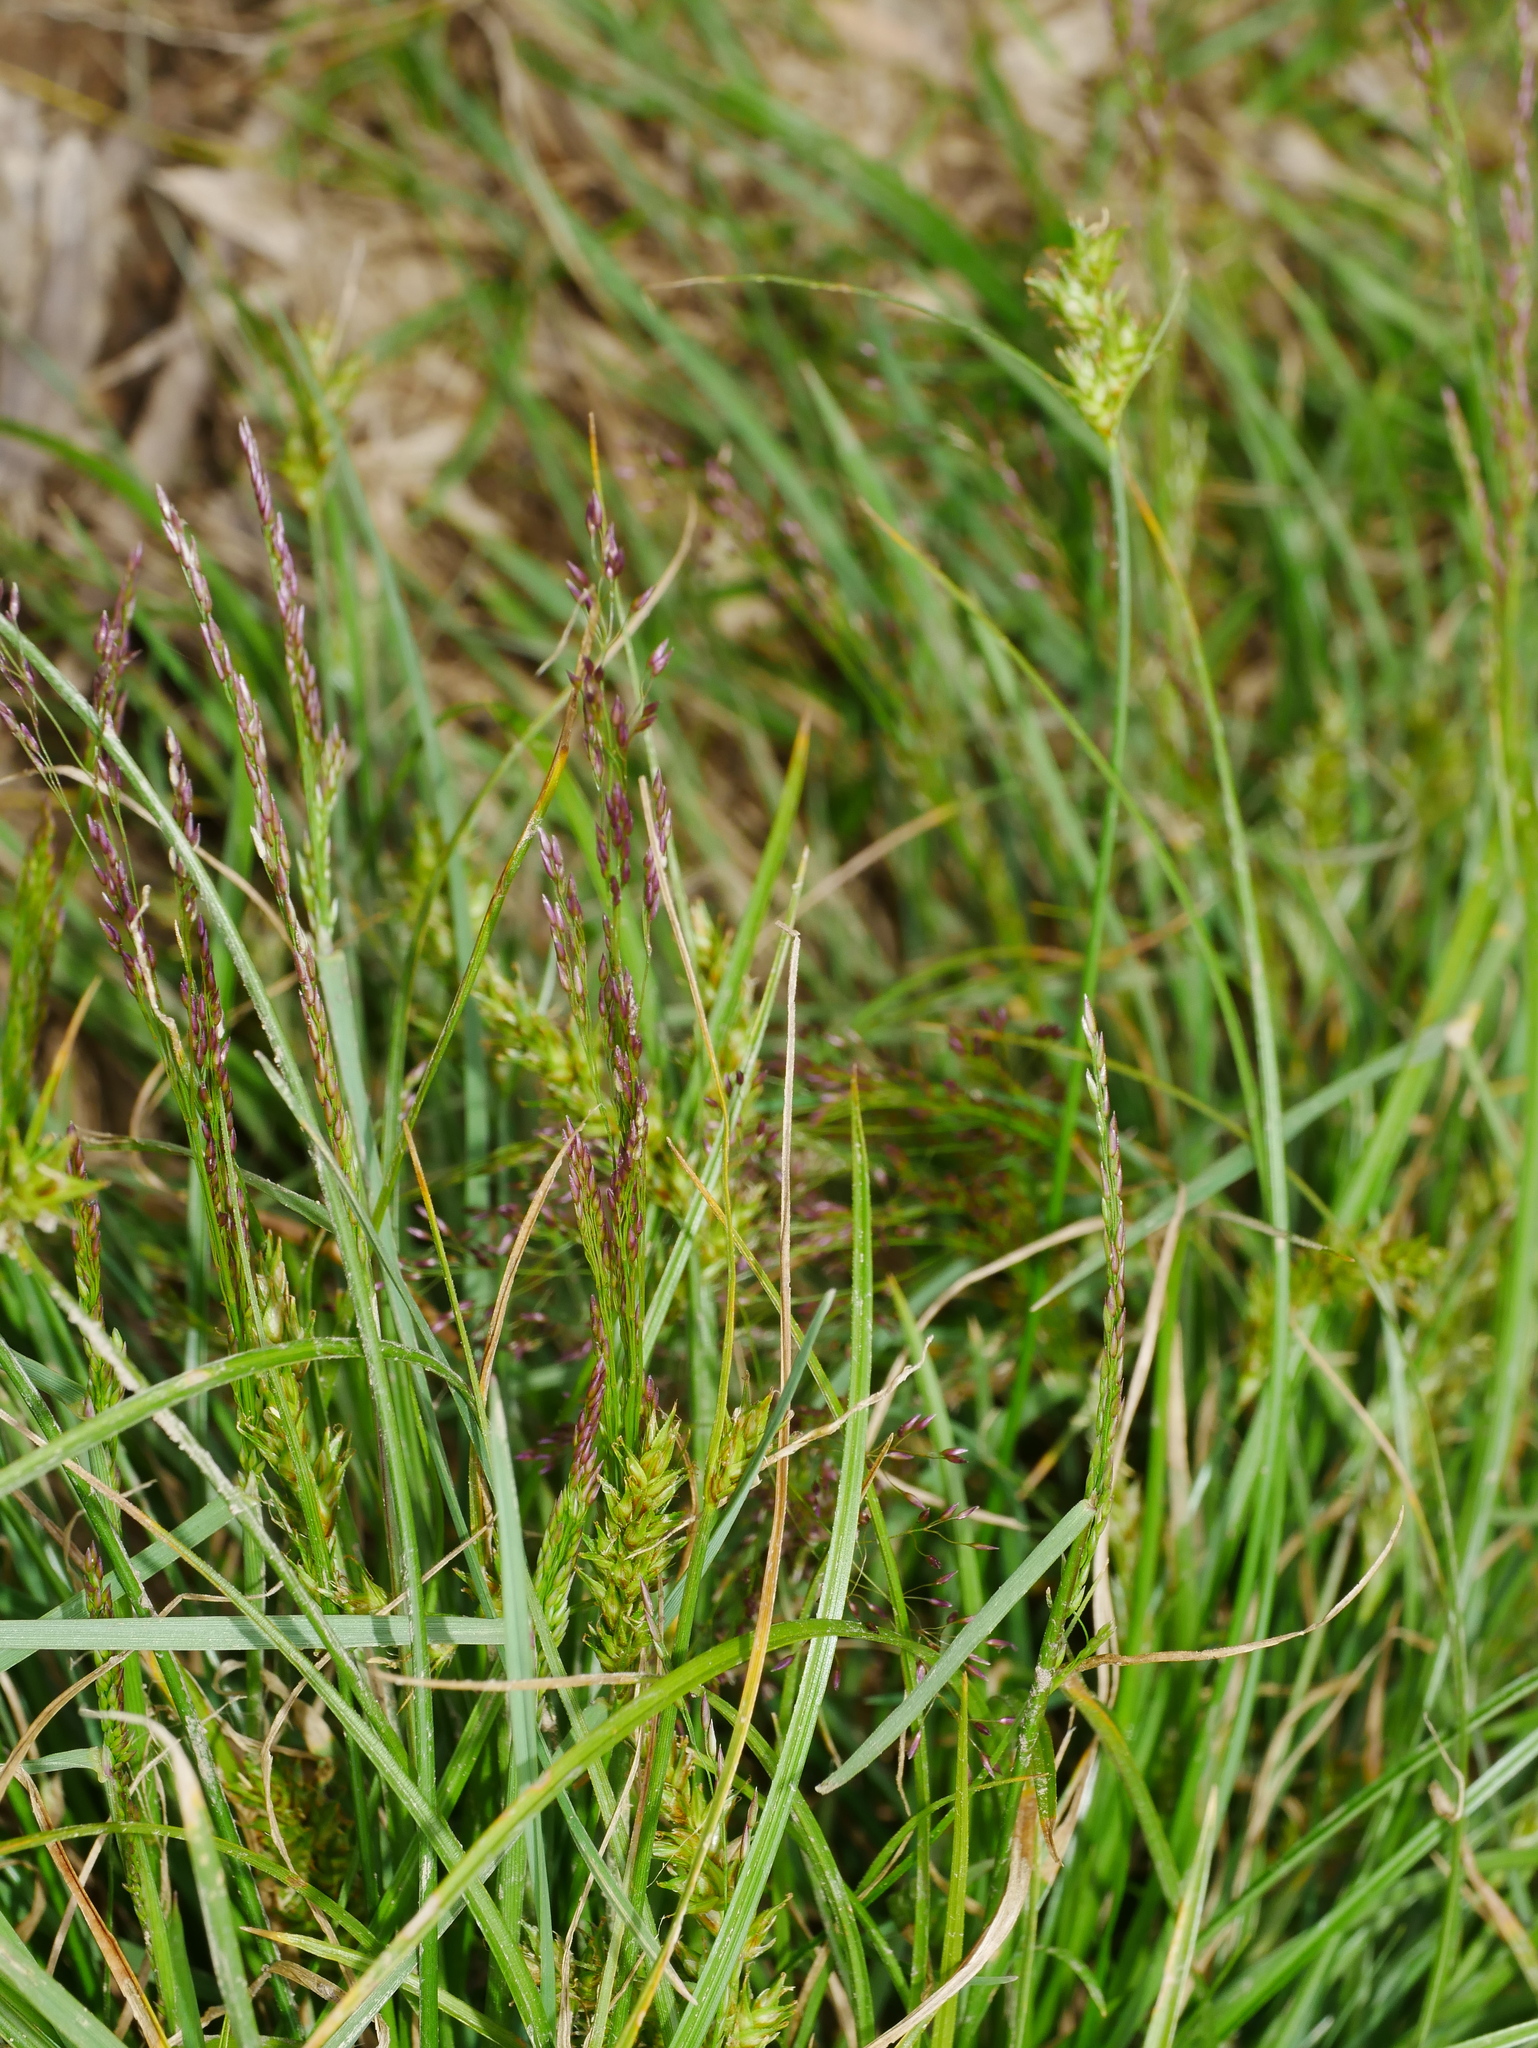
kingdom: Plantae
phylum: Tracheophyta
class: Liliopsida
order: Poales
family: Cyperaceae
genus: Carex
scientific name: Carex nubigena
